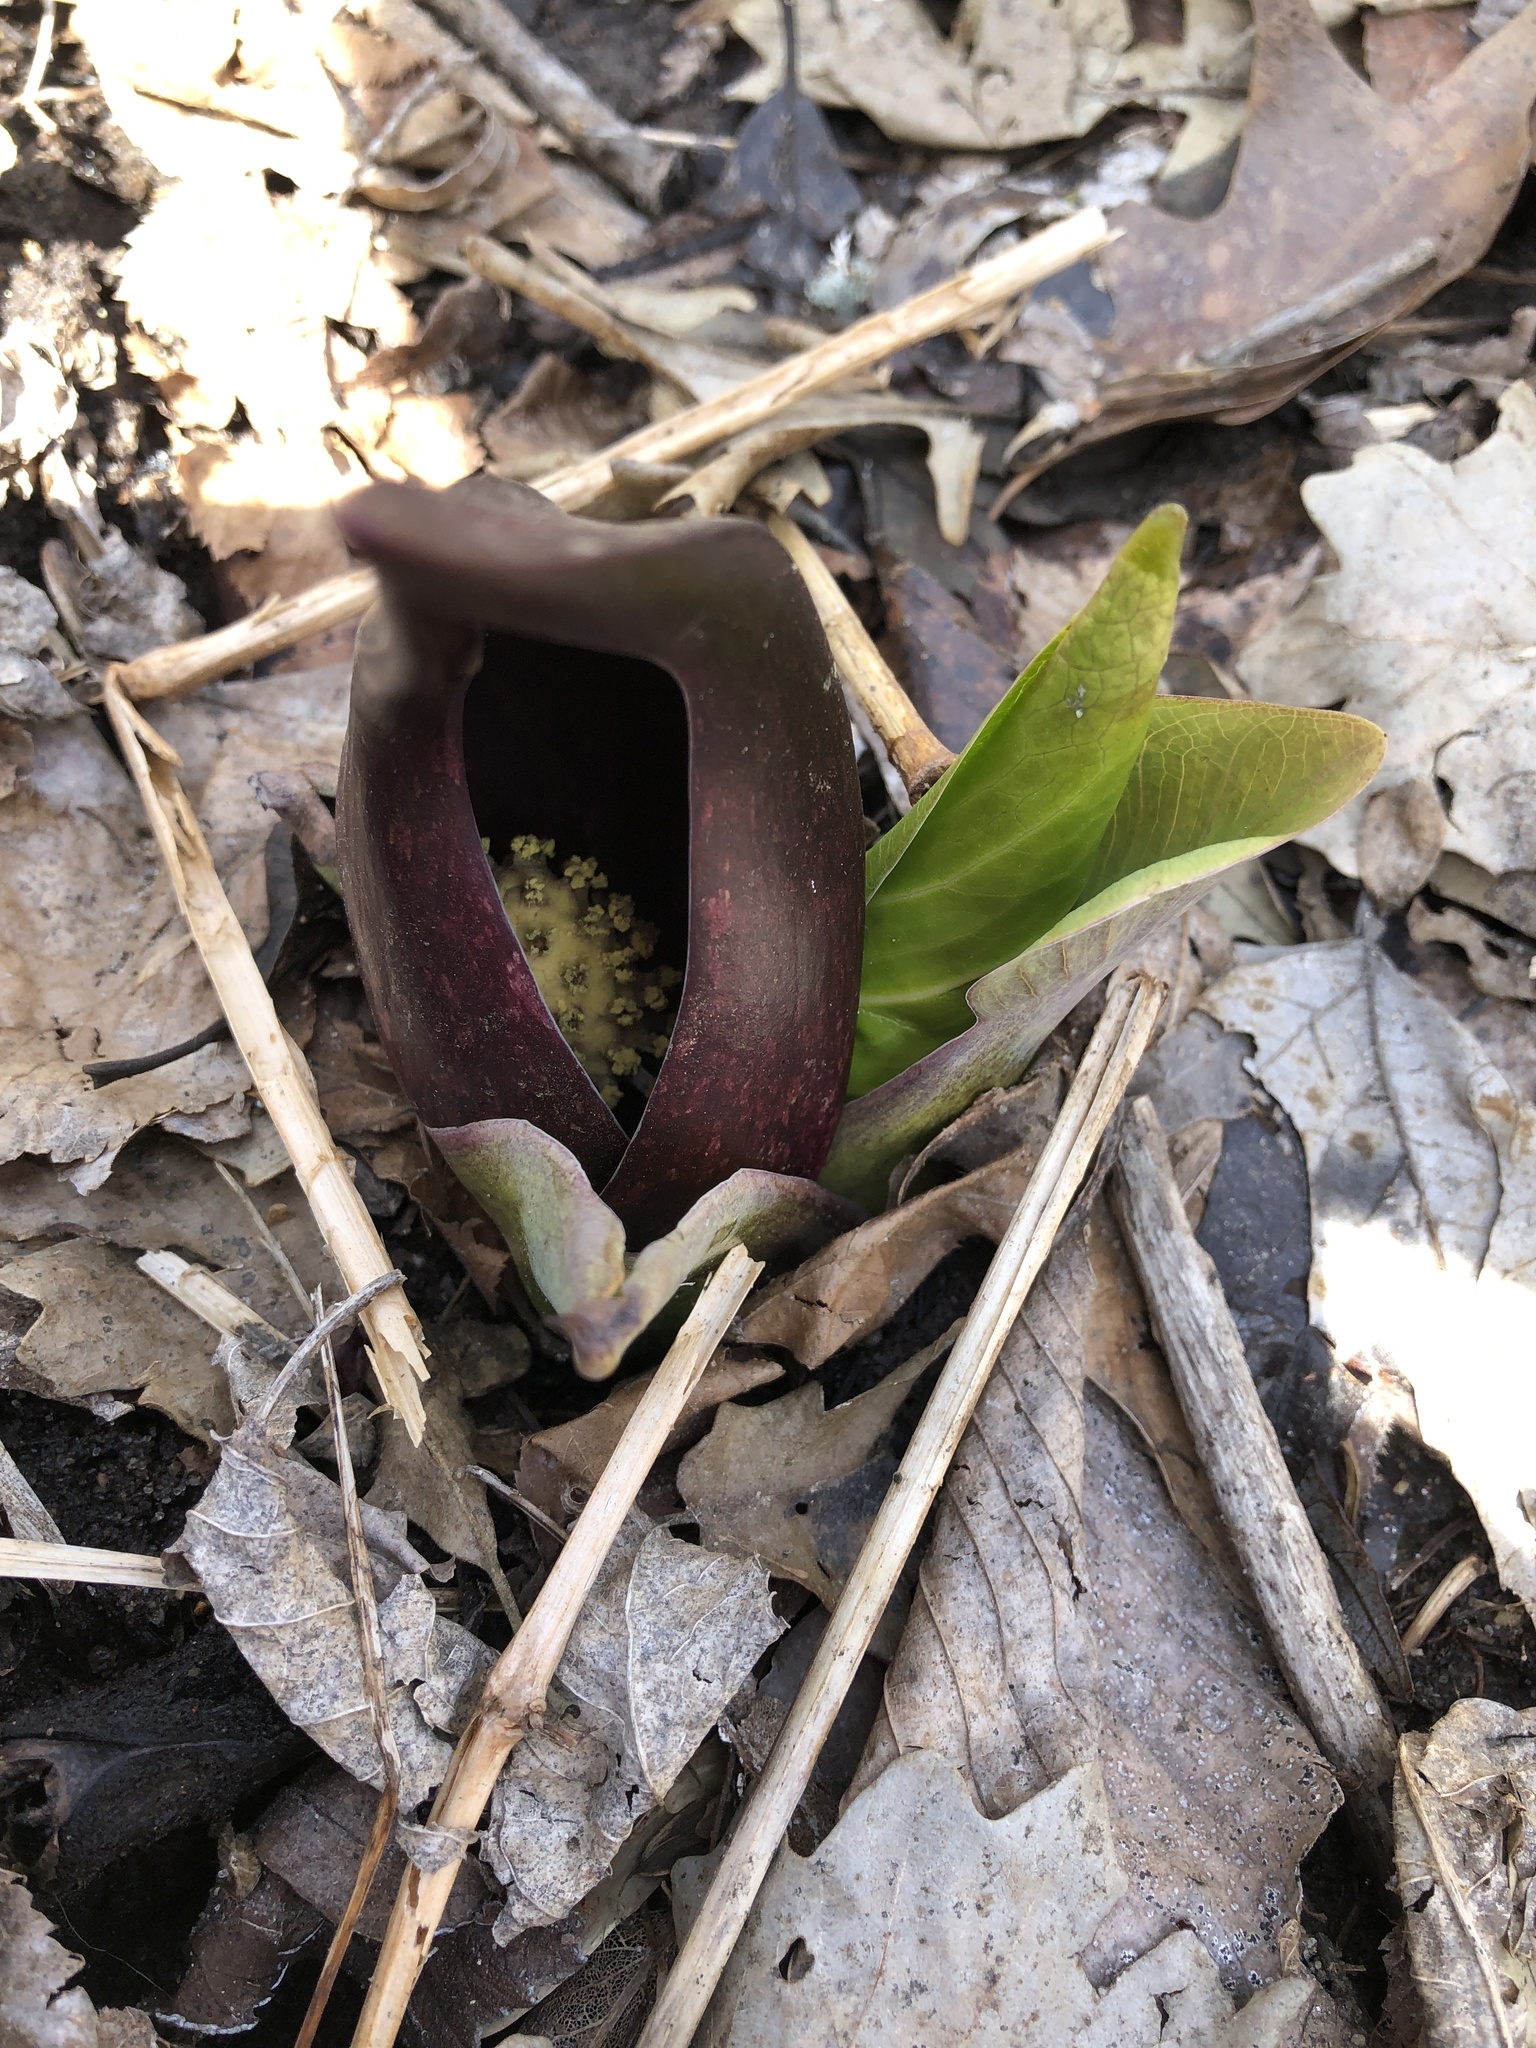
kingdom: Plantae
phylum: Tracheophyta
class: Liliopsida
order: Alismatales
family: Araceae
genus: Symplocarpus
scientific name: Symplocarpus foetidus
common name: Eastern skunk cabbage
